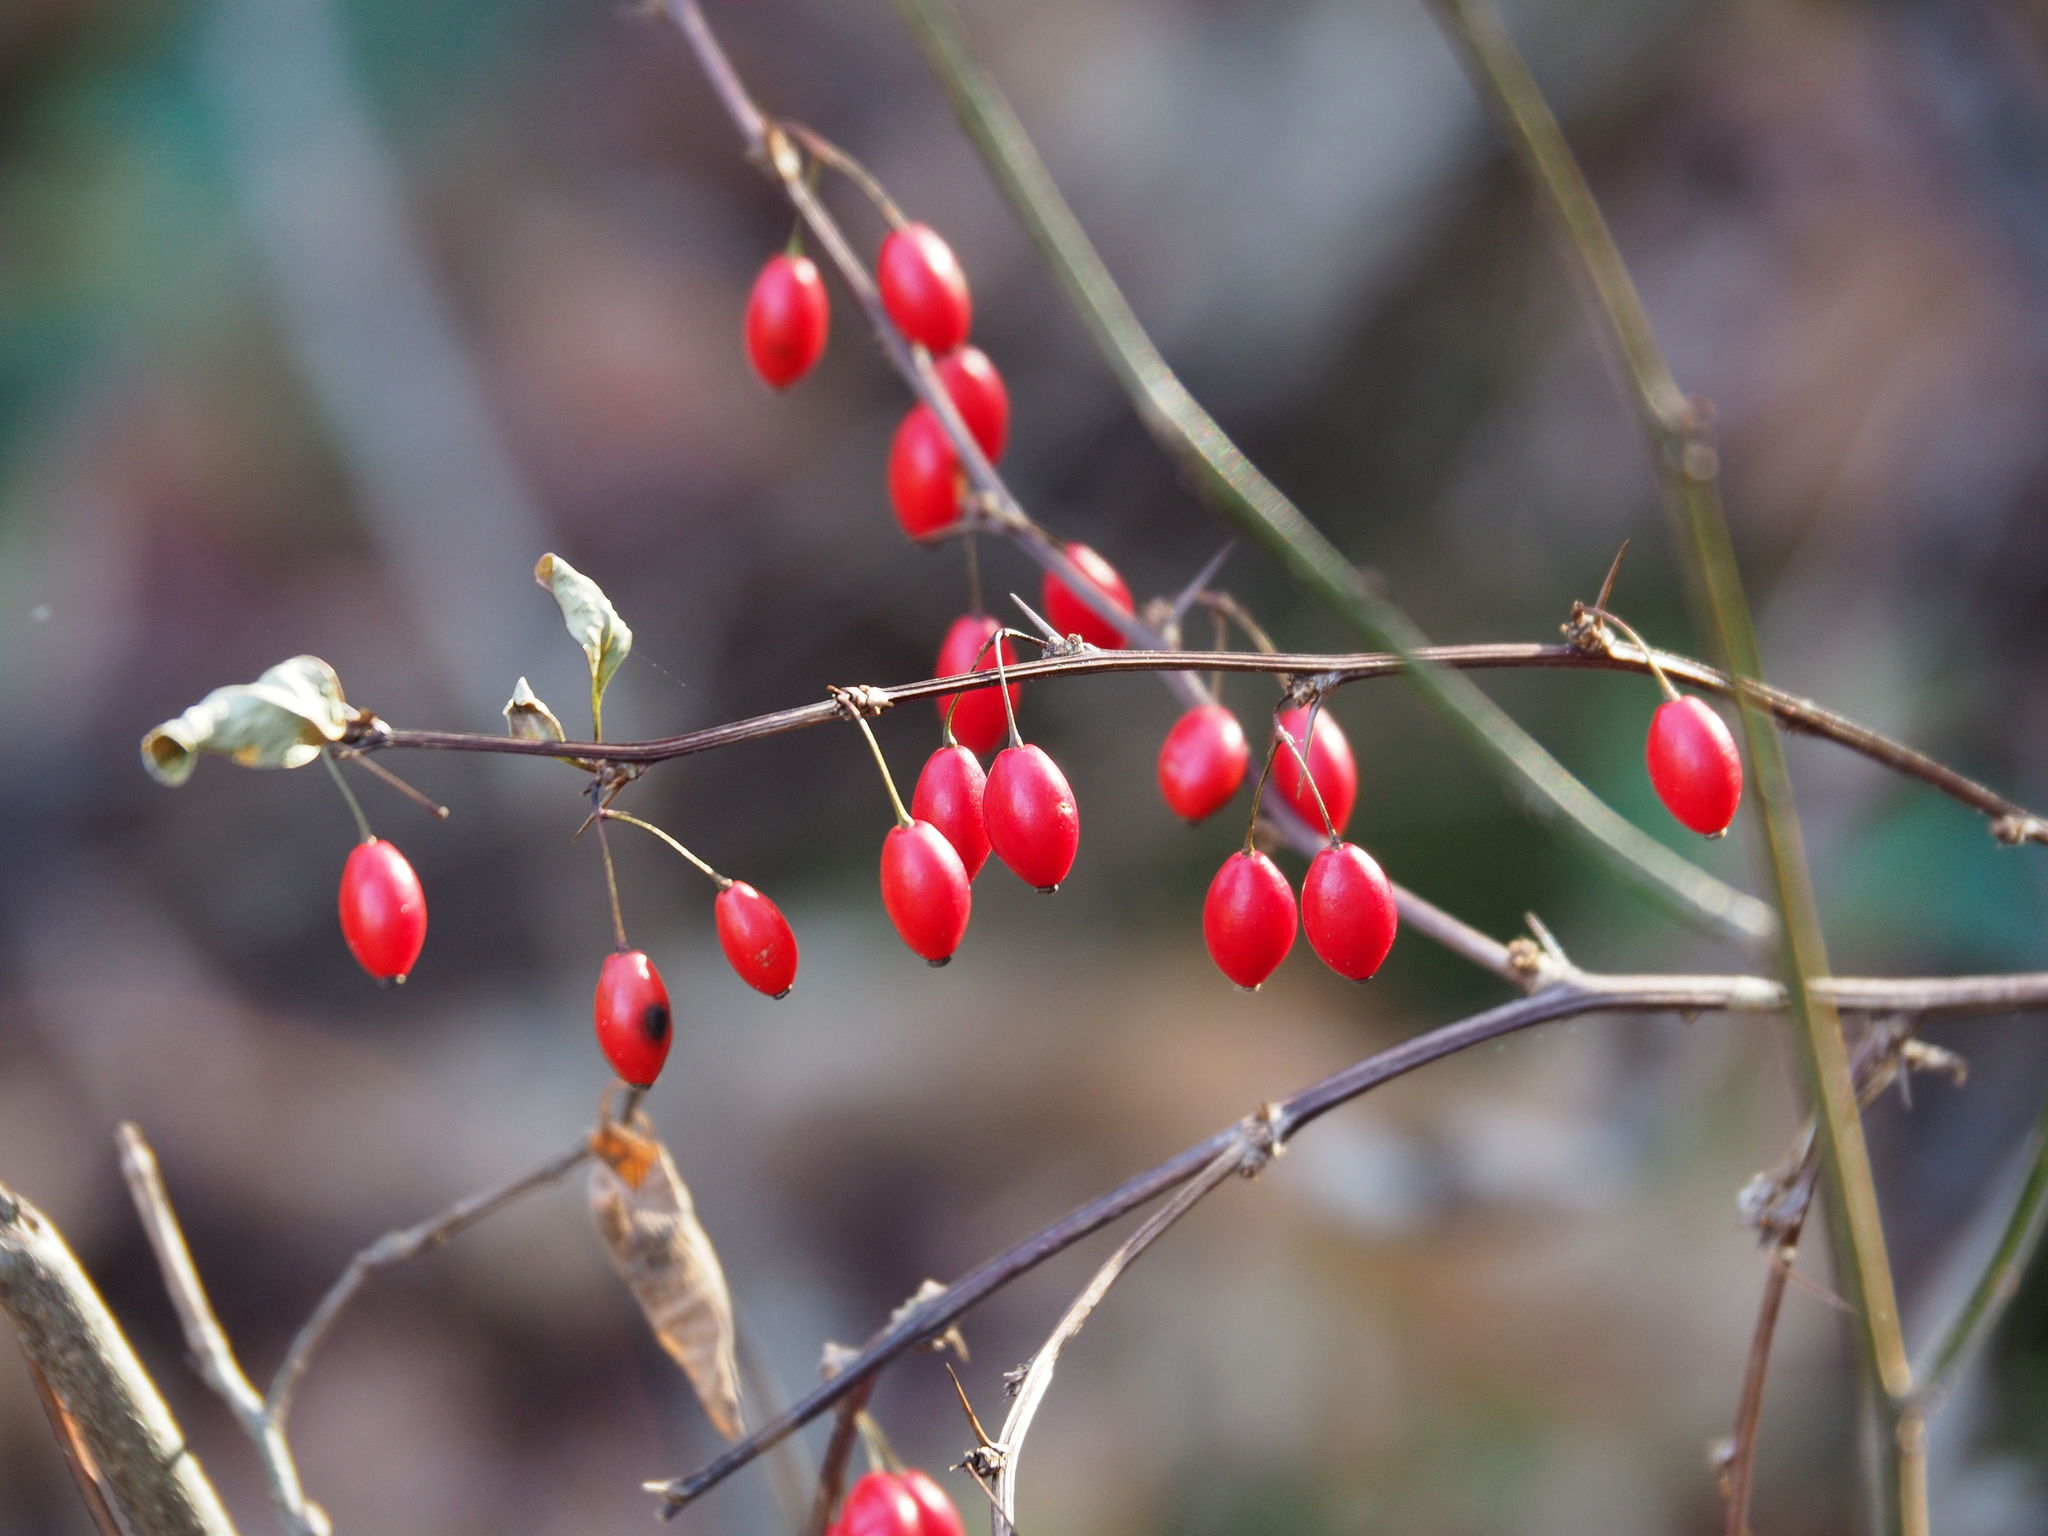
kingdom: Plantae
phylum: Tracheophyta
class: Magnoliopsida
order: Ranunculales
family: Berberidaceae
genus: Berberis
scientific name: Berberis thunbergii
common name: Japanese barberry
